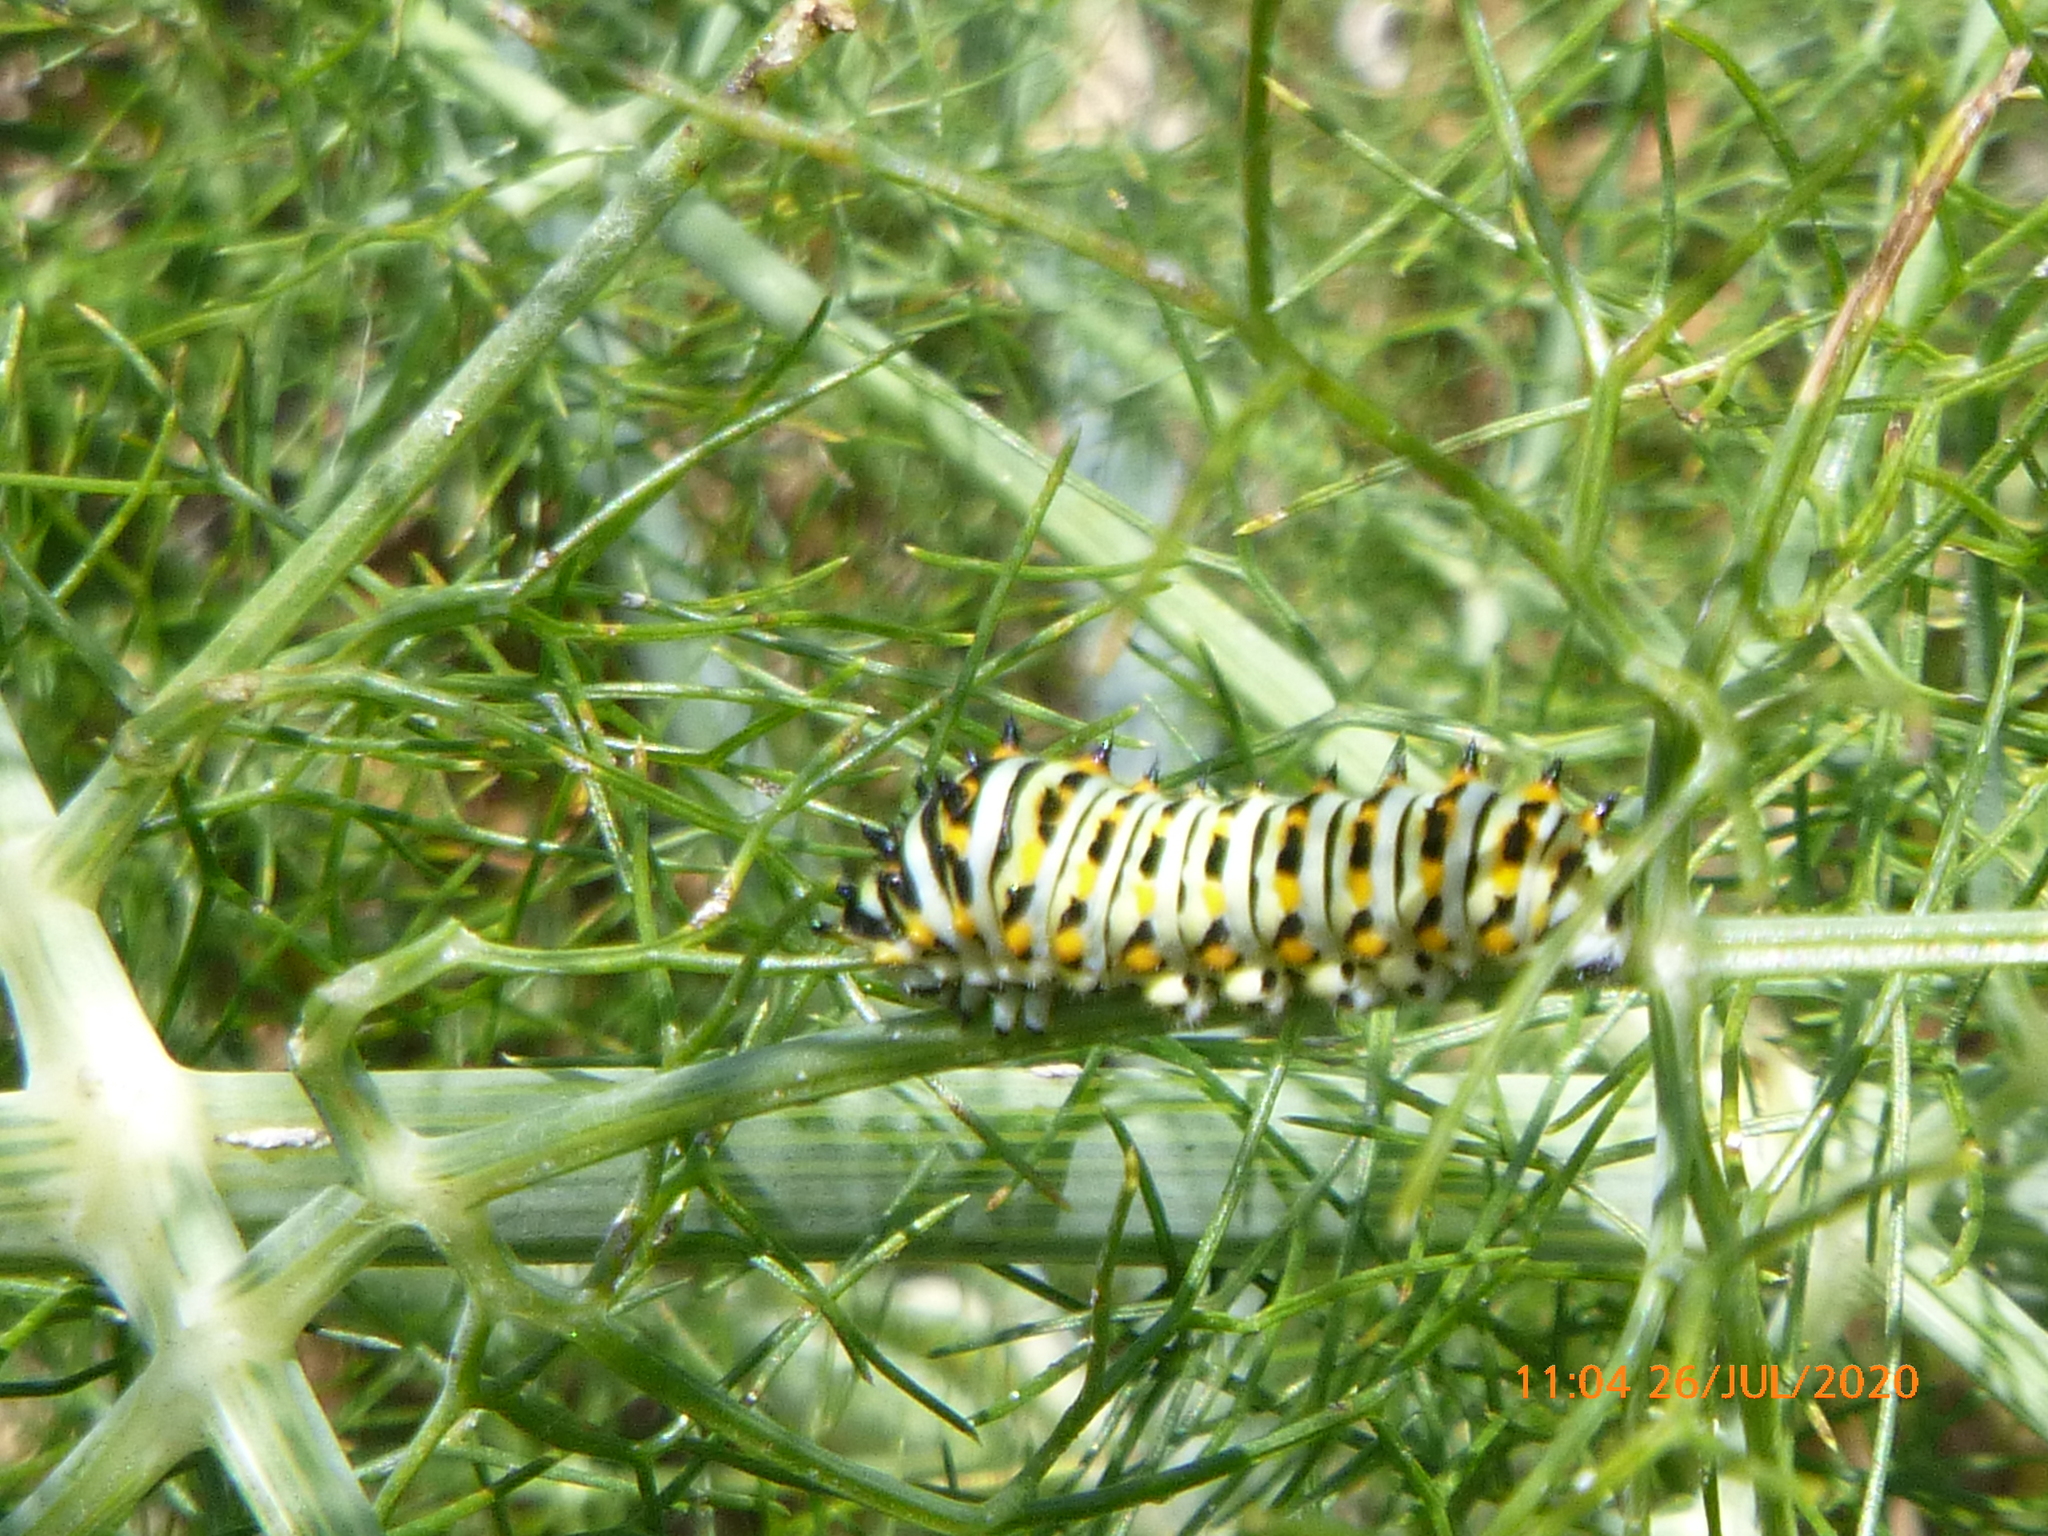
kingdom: Animalia
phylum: Arthropoda
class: Insecta
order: Lepidoptera
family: Papilionidae
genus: Papilio
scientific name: Papilio zelicaon
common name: Anise swallowtail
